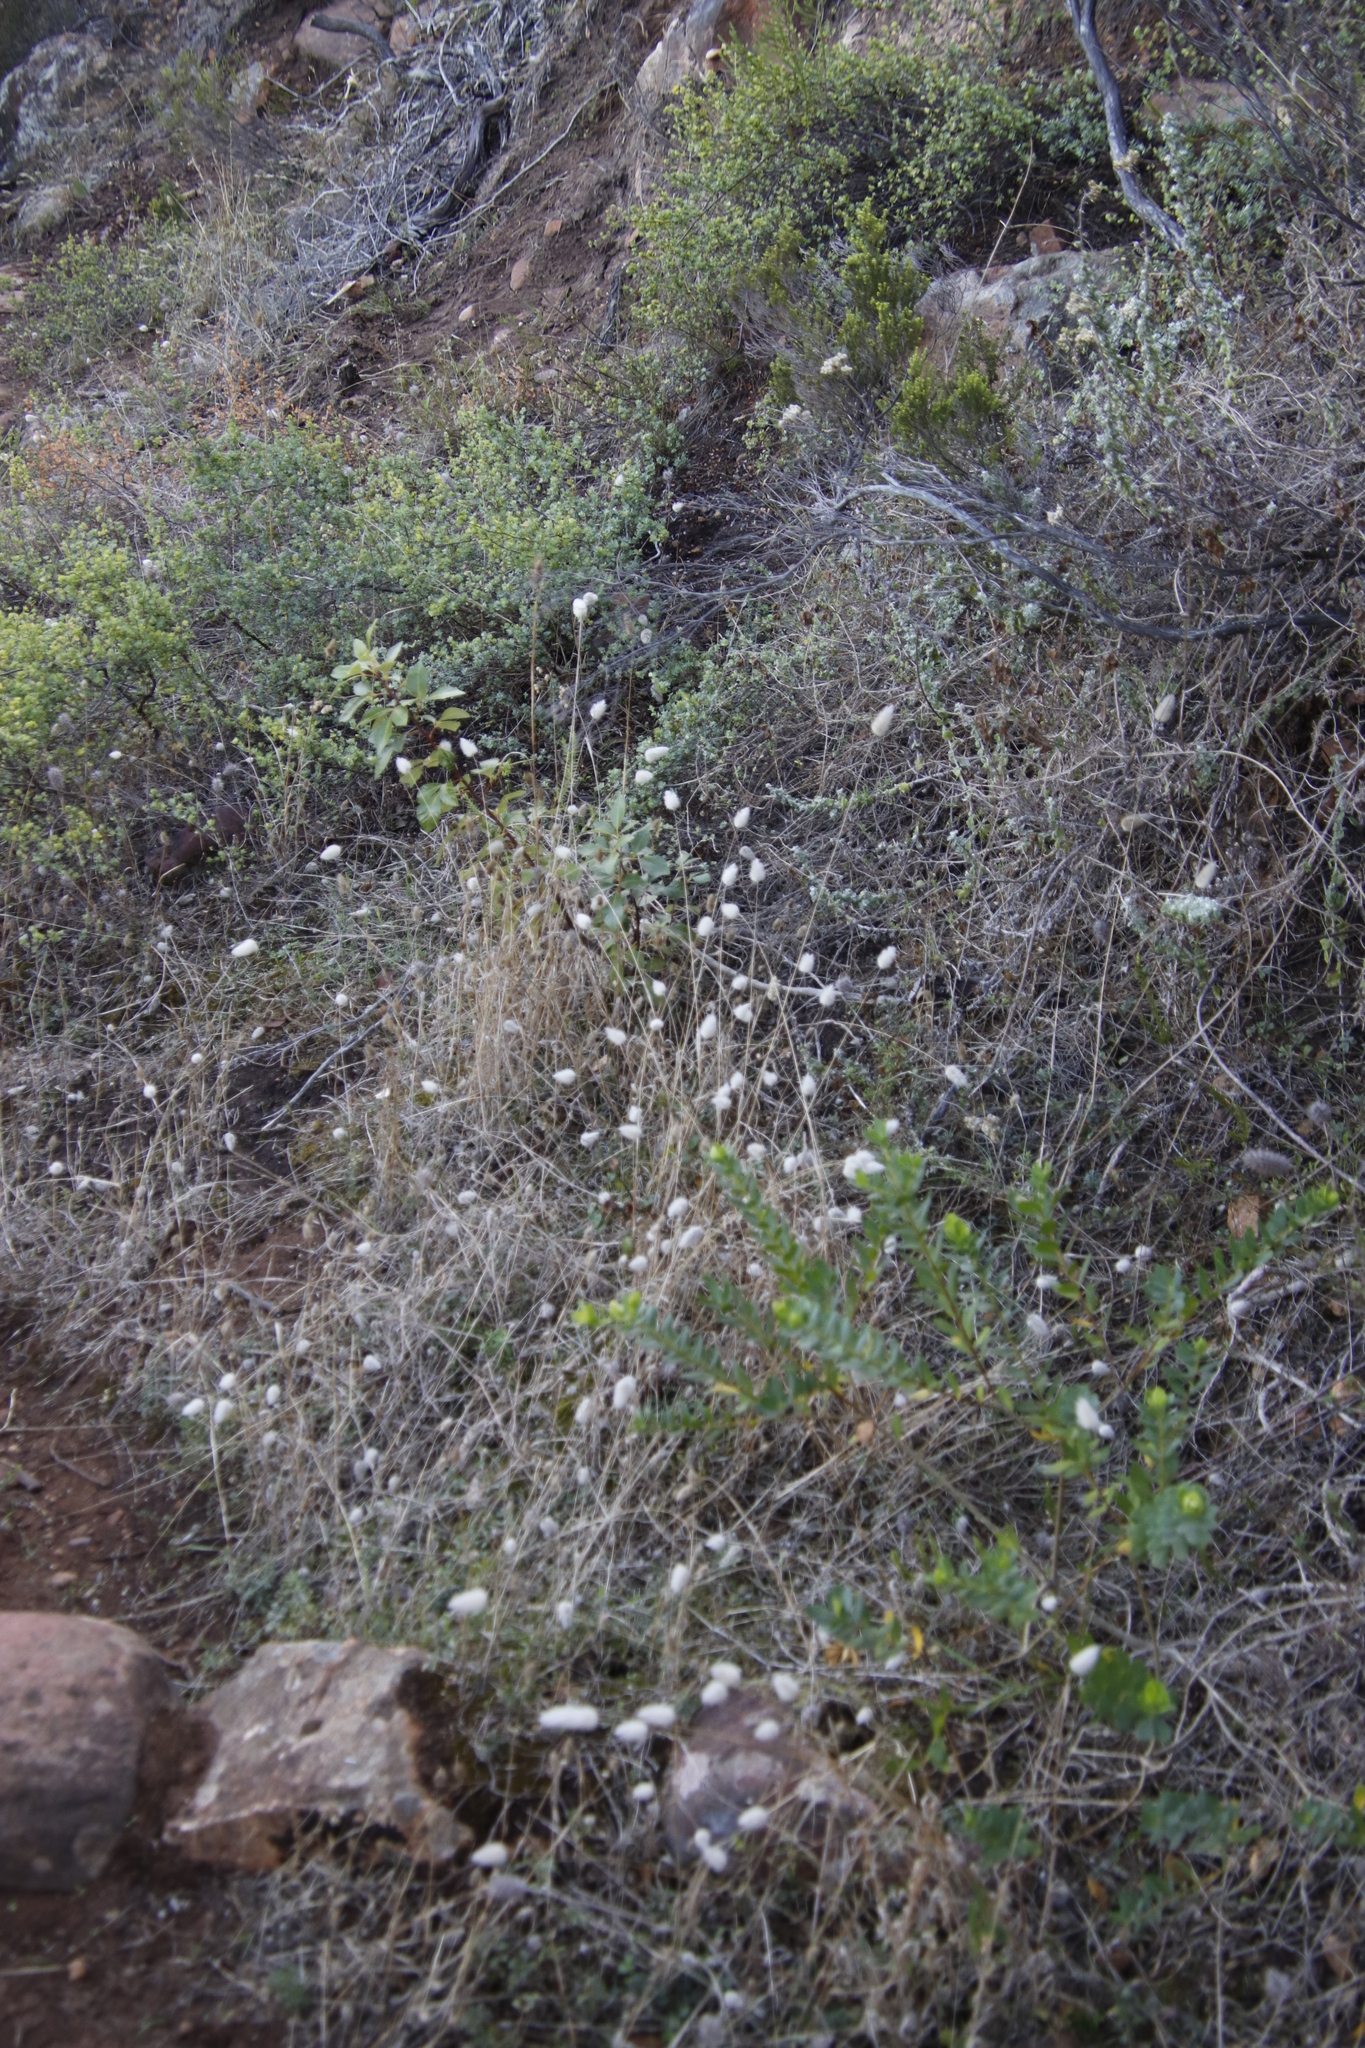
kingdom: Plantae
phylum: Tracheophyta
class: Liliopsida
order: Poales
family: Poaceae
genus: Lagurus
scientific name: Lagurus ovatus
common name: Hare's-tail
